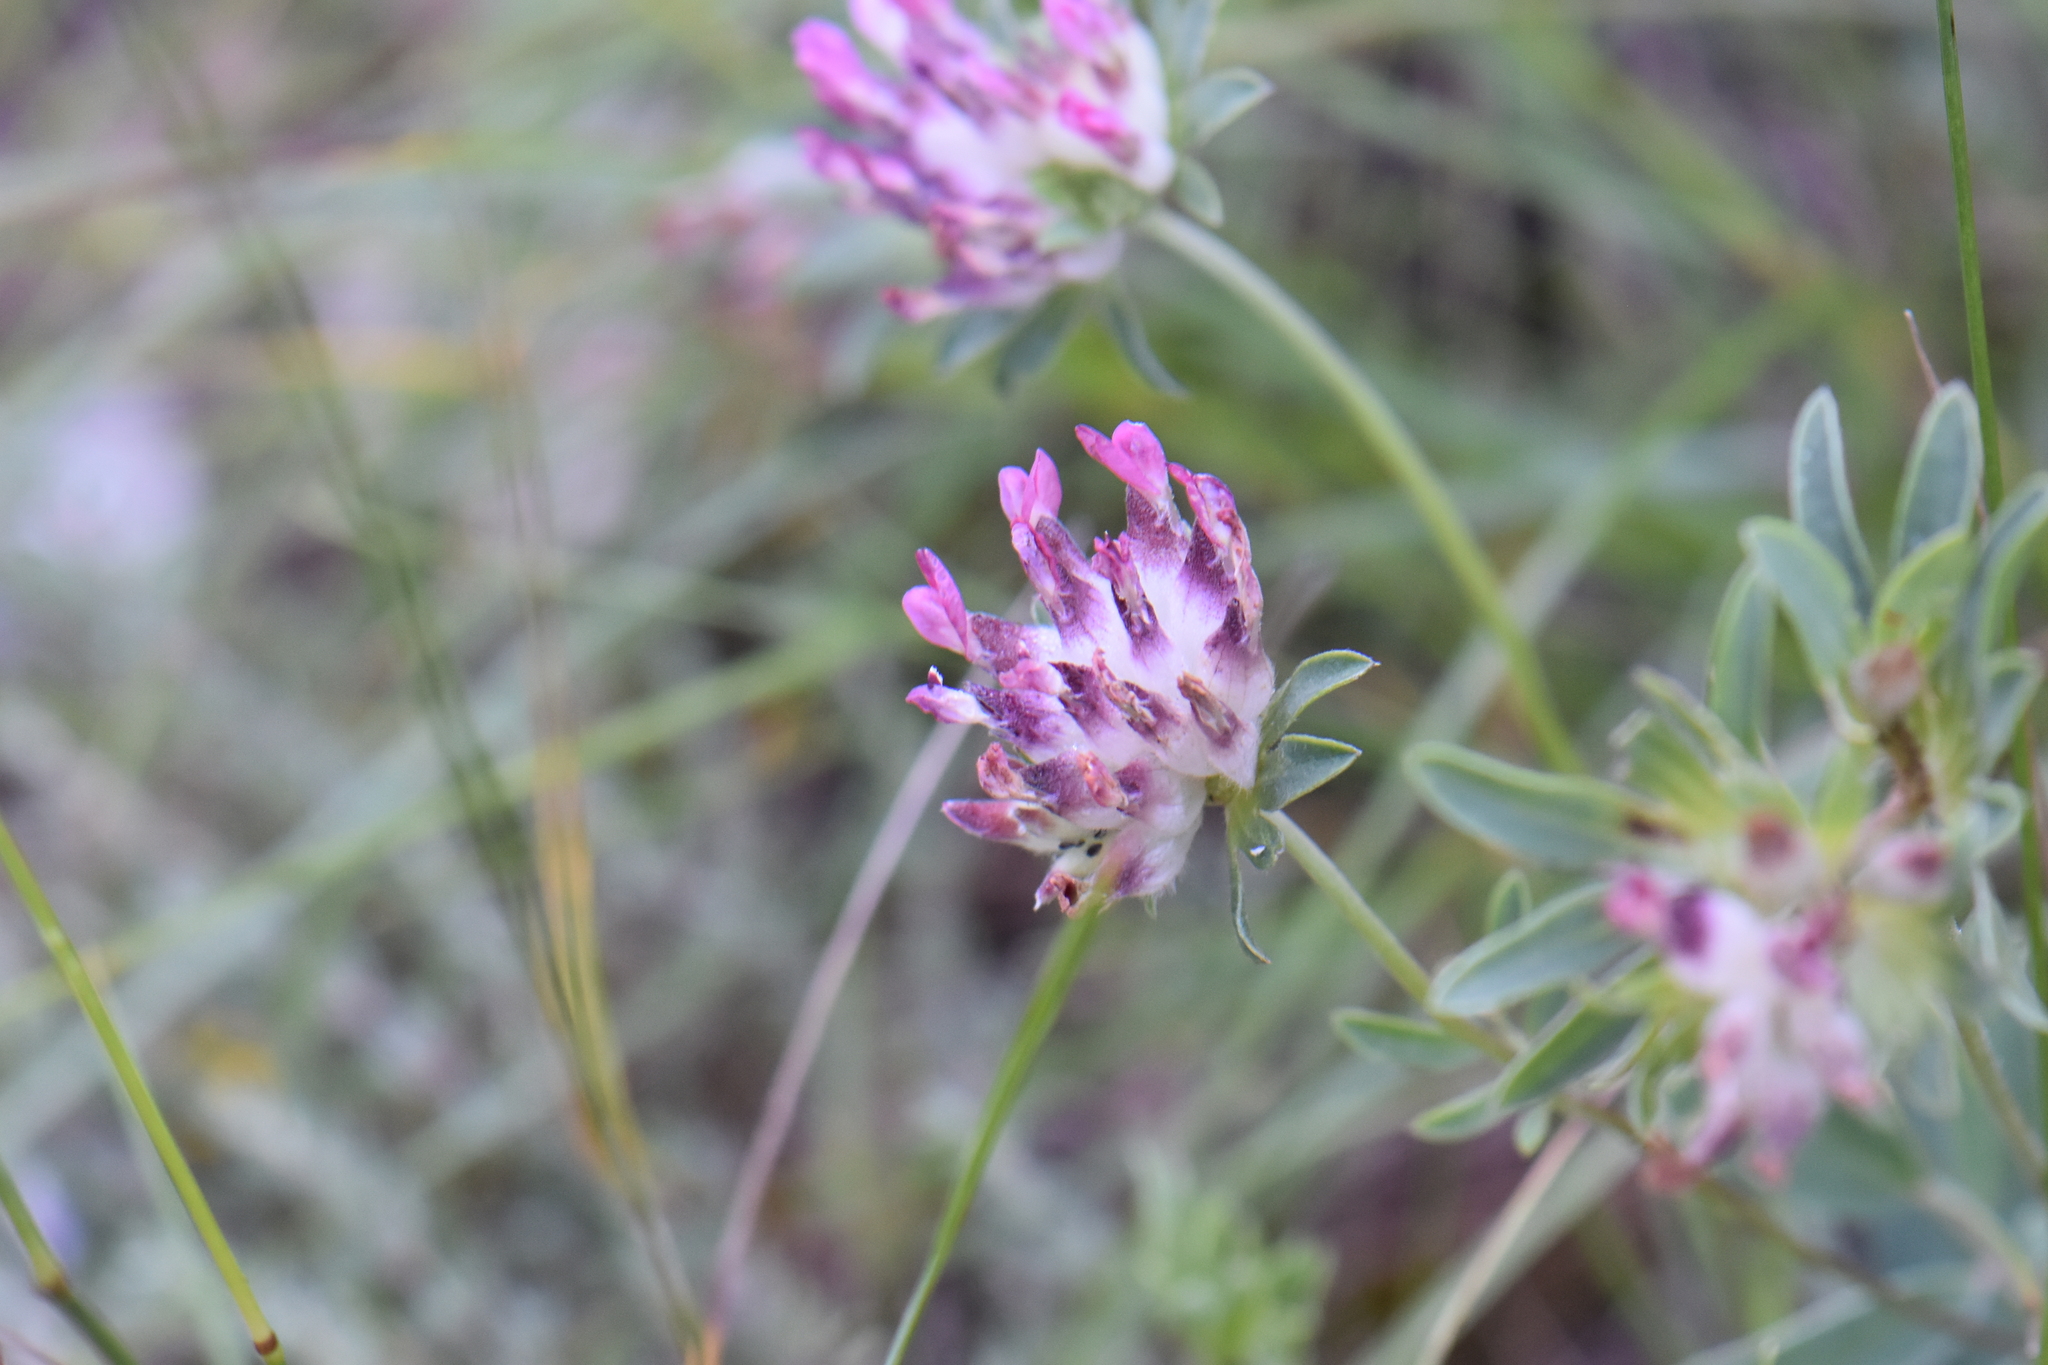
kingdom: Plantae
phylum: Tracheophyta
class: Magnoliopsida
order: Fabales
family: Fabaceae
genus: Anthyllis
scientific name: Anthyllis vulneraria
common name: Kidney vetch
